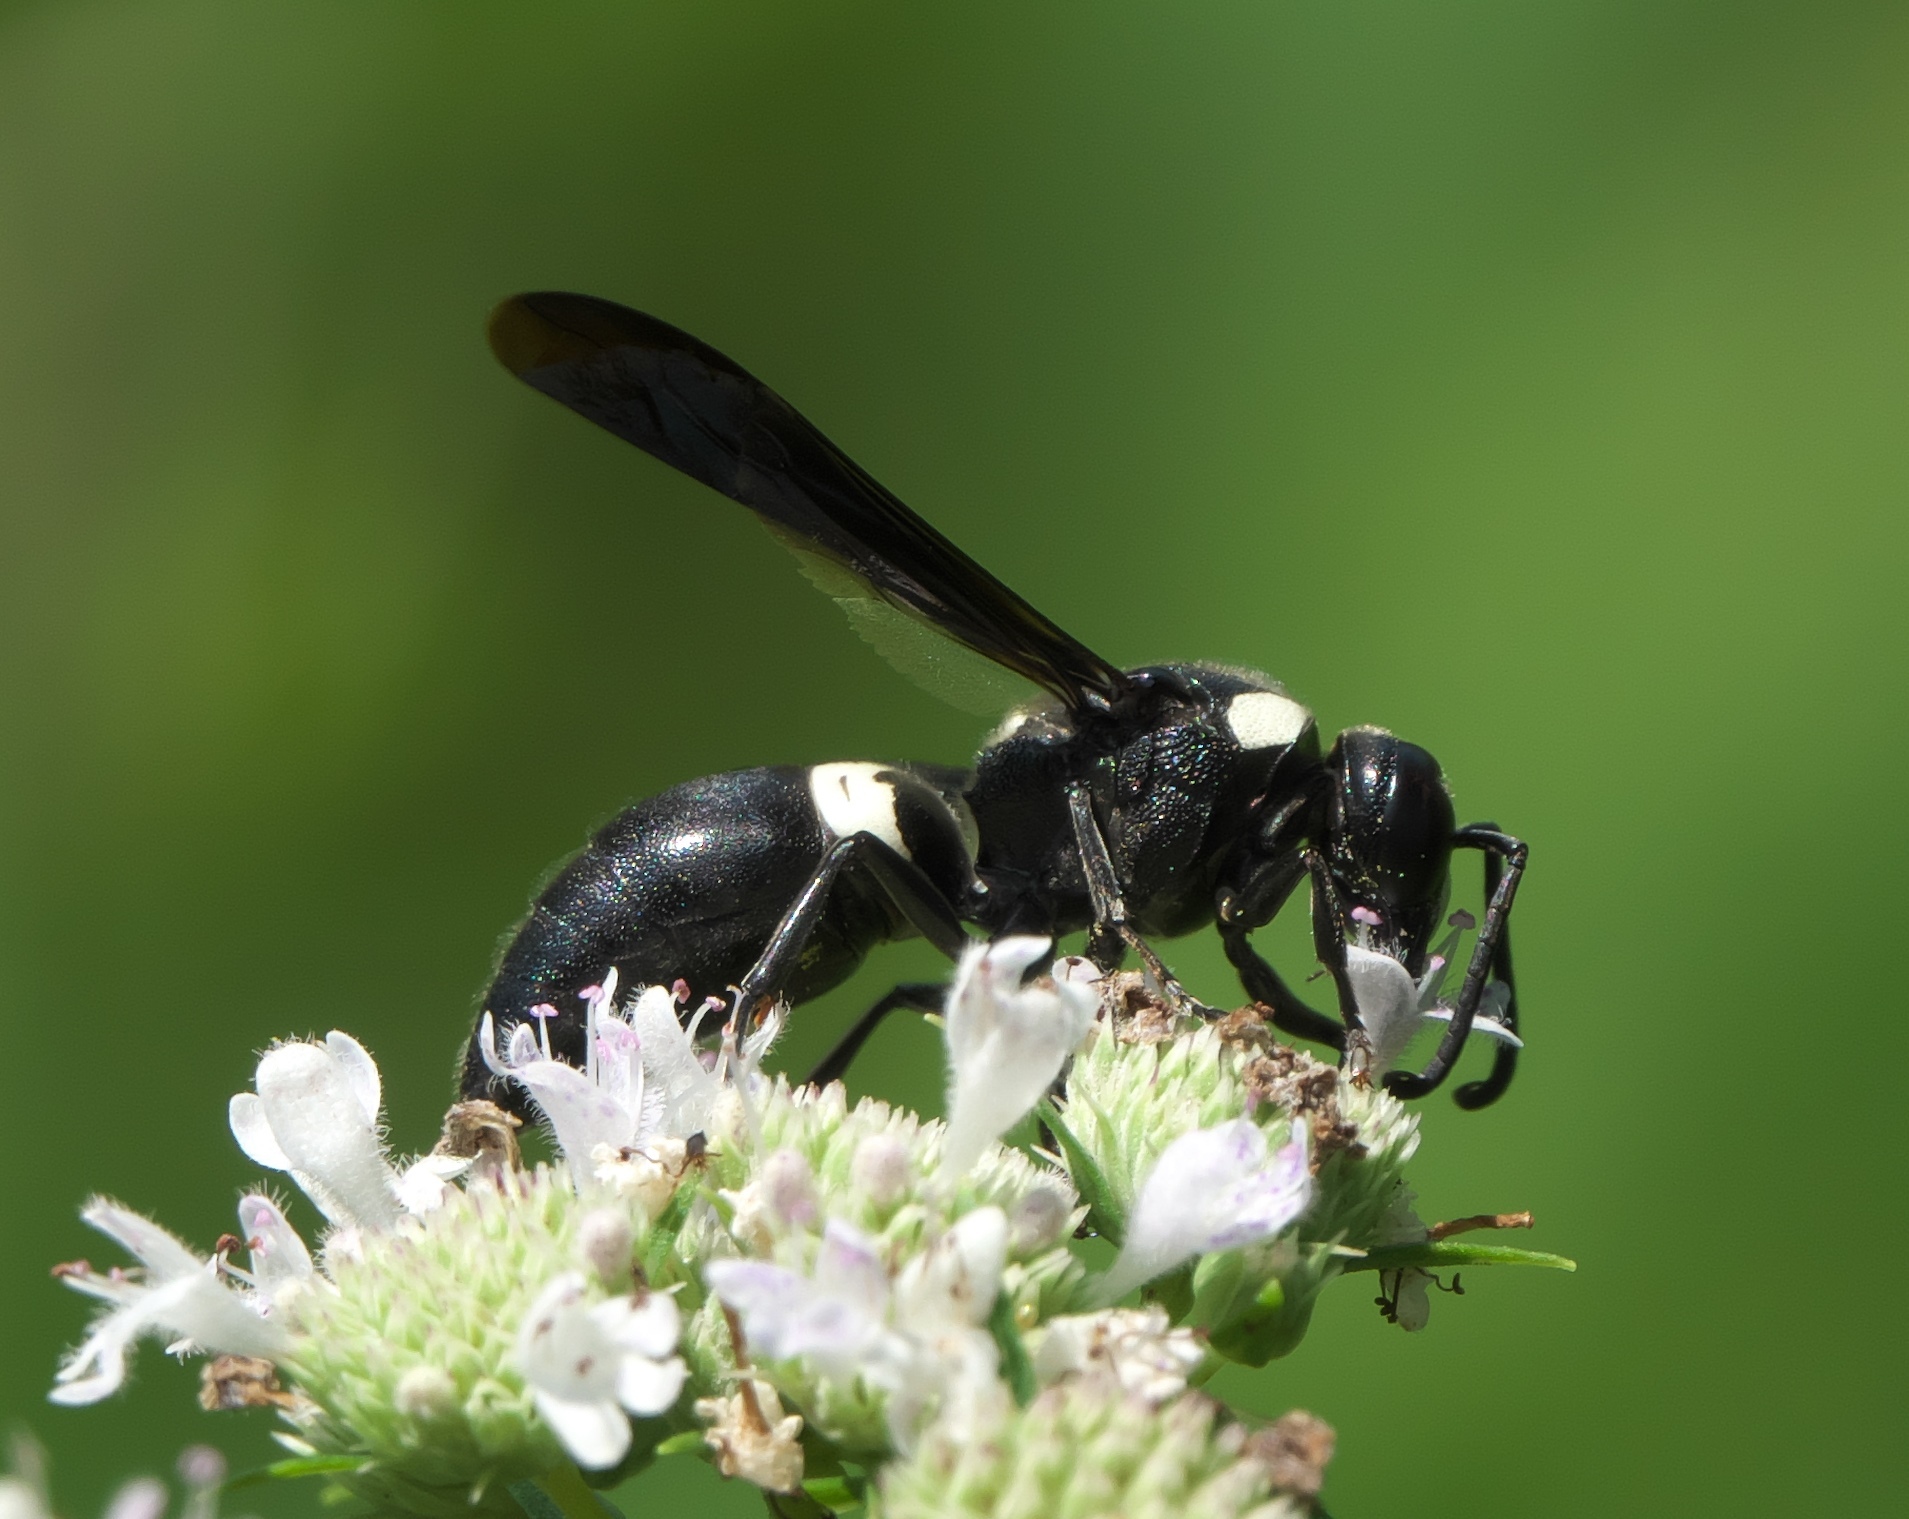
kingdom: Animalia
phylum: Arthropoda
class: Insecta
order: Hymenoptera
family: Eumenidae
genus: Monobia
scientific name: Monobia quadridens
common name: Four-toothed mason wasp
